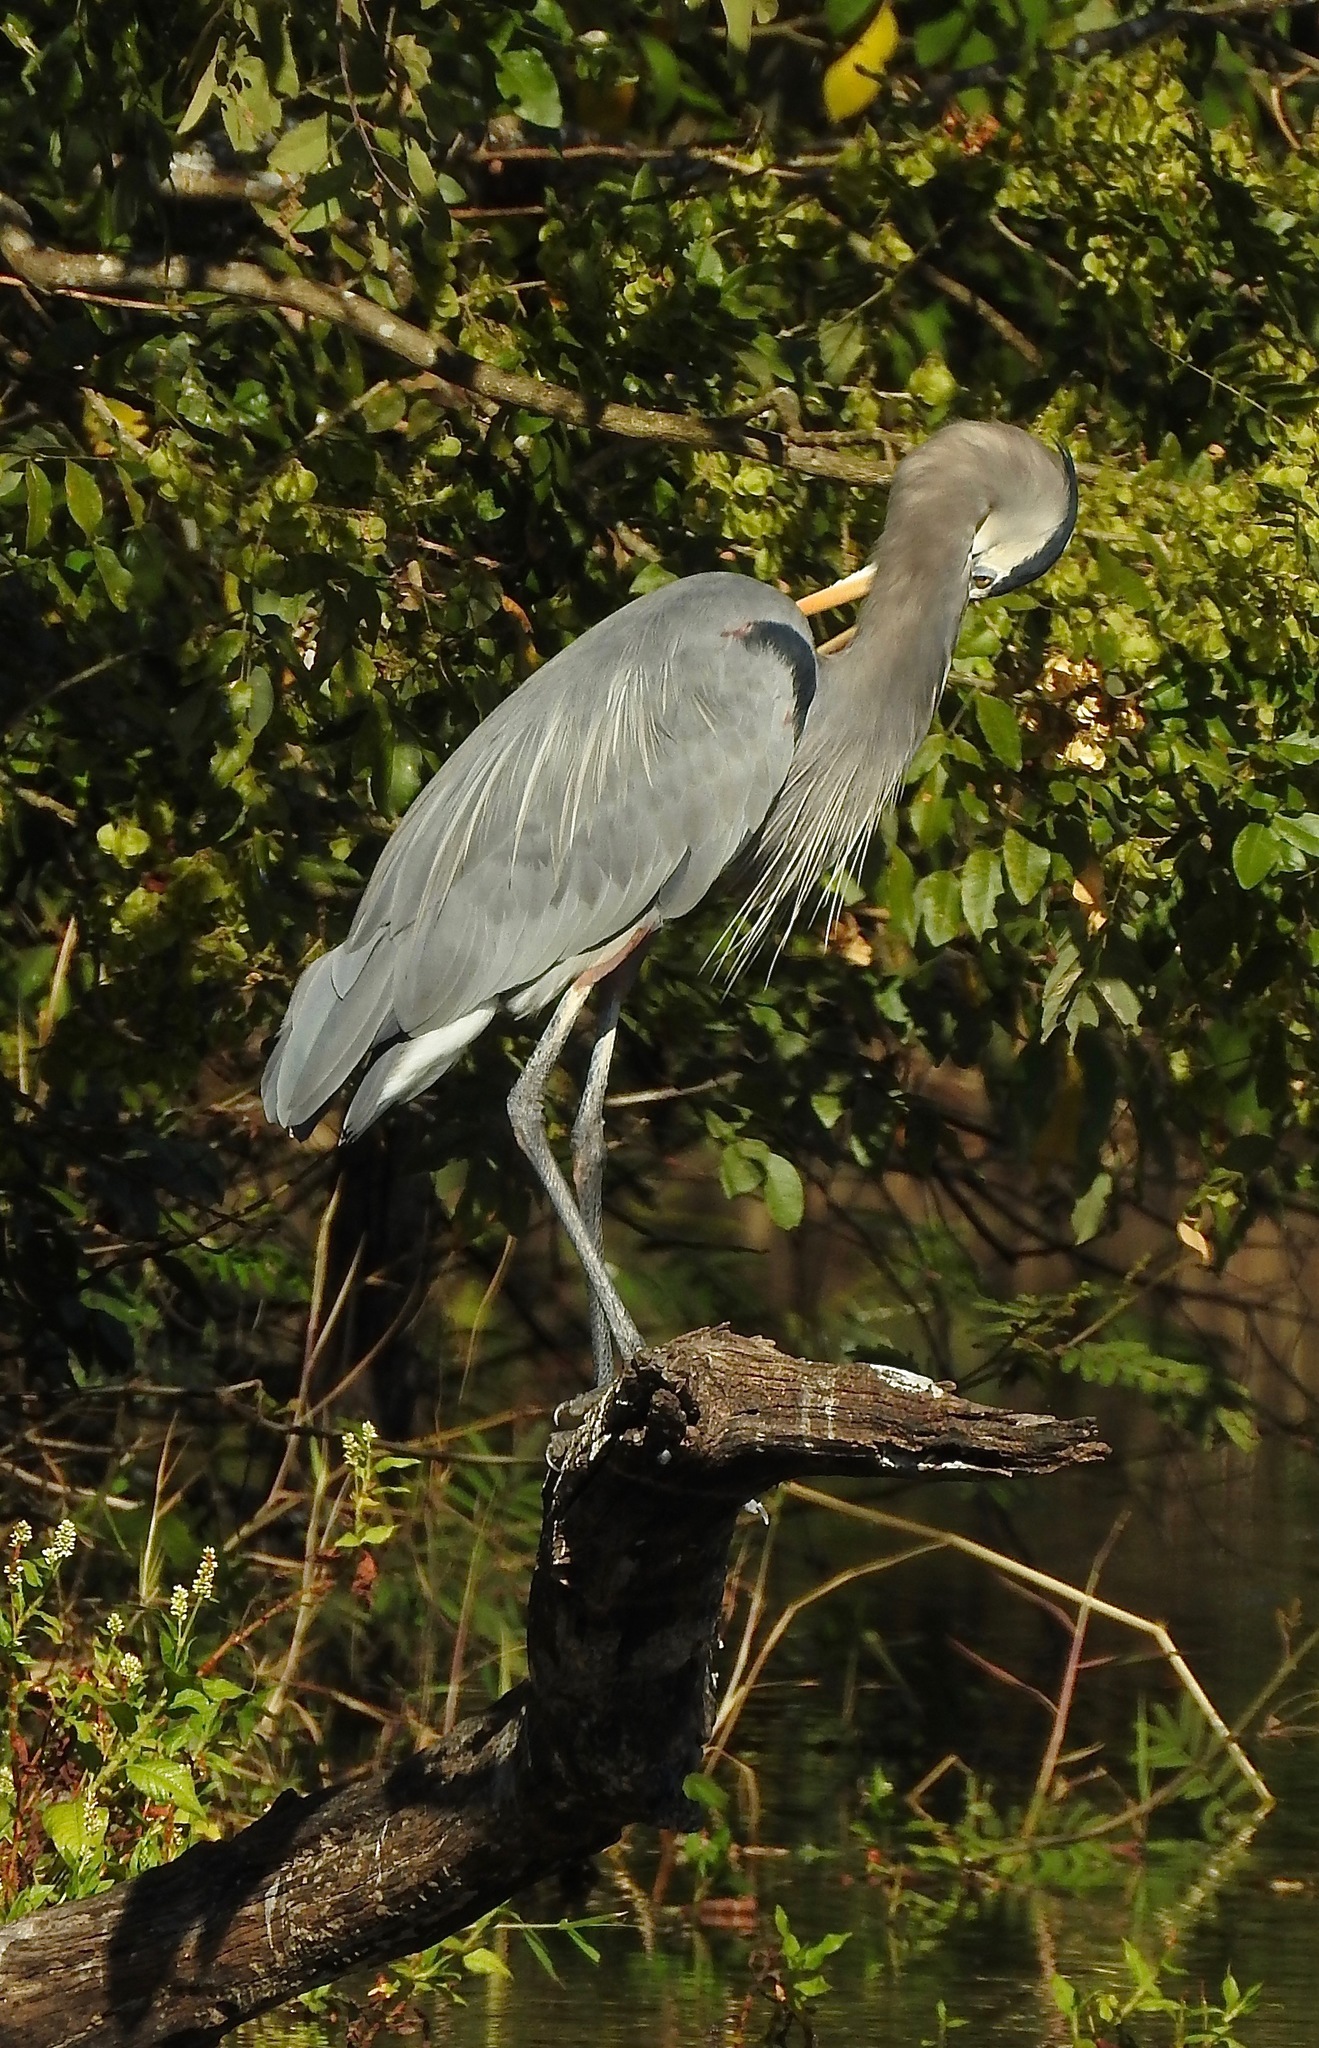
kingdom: Animalia
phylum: Chordata
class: Aves
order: Pelecaniformes
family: Ardeidae
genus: Ardea
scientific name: Ardea herodias
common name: Great blue heron
